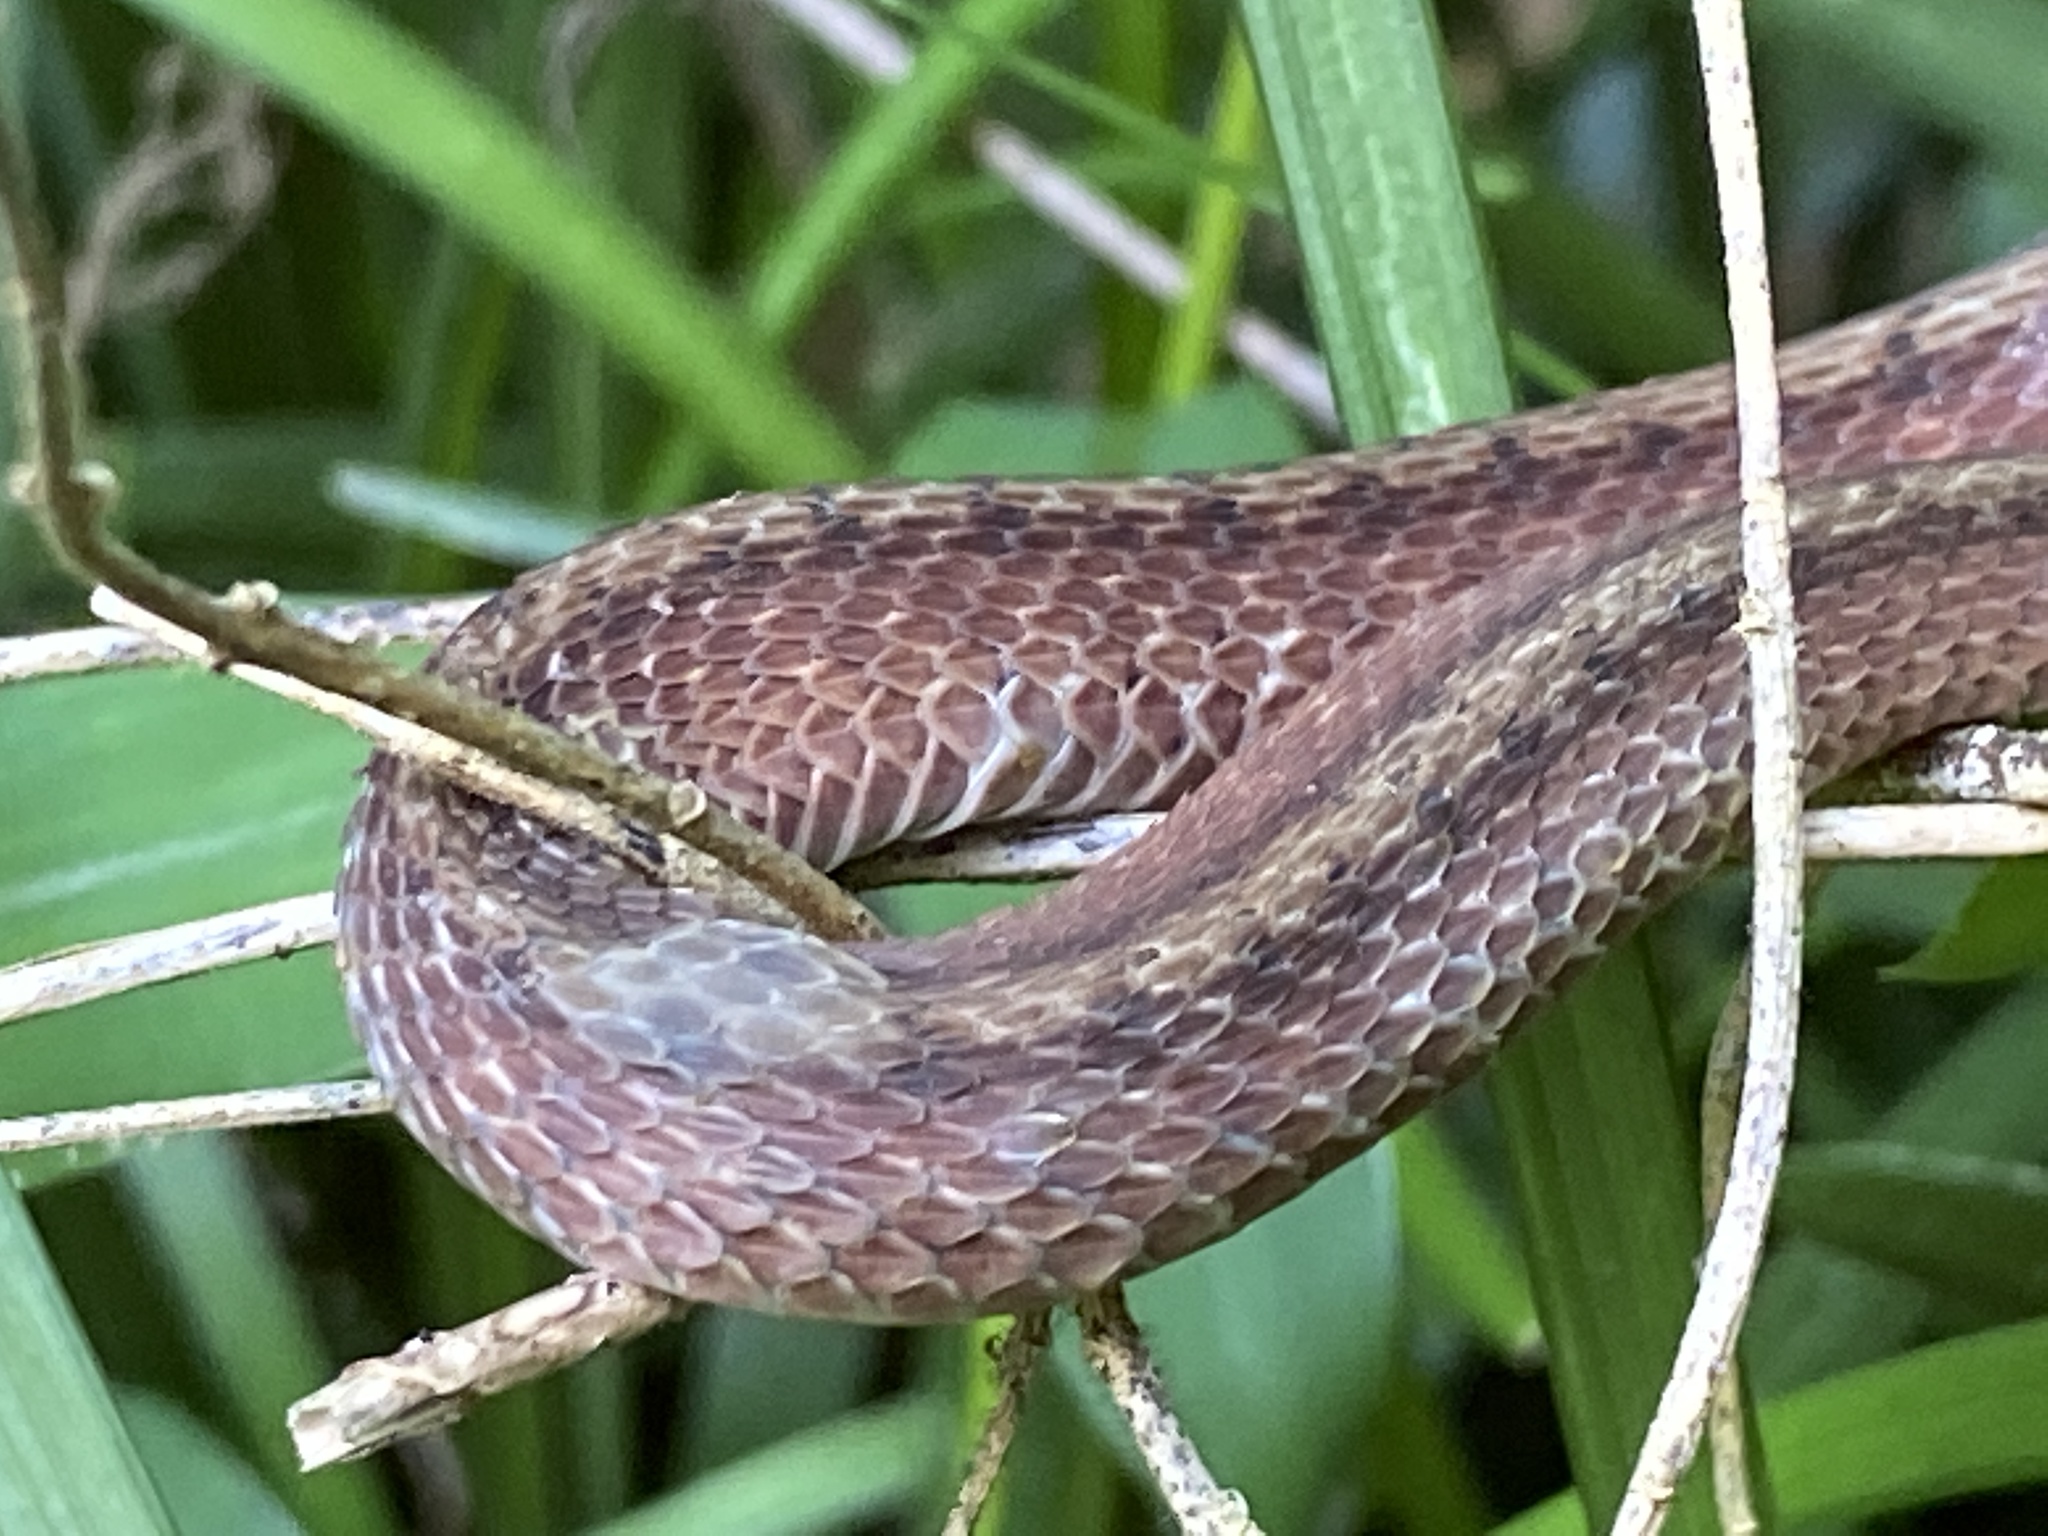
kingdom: Animalia
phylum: Chordata
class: Squamata
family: Colubridae
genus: Storeria
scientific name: Storeria dekayi
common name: (dekay’s) brown snake
